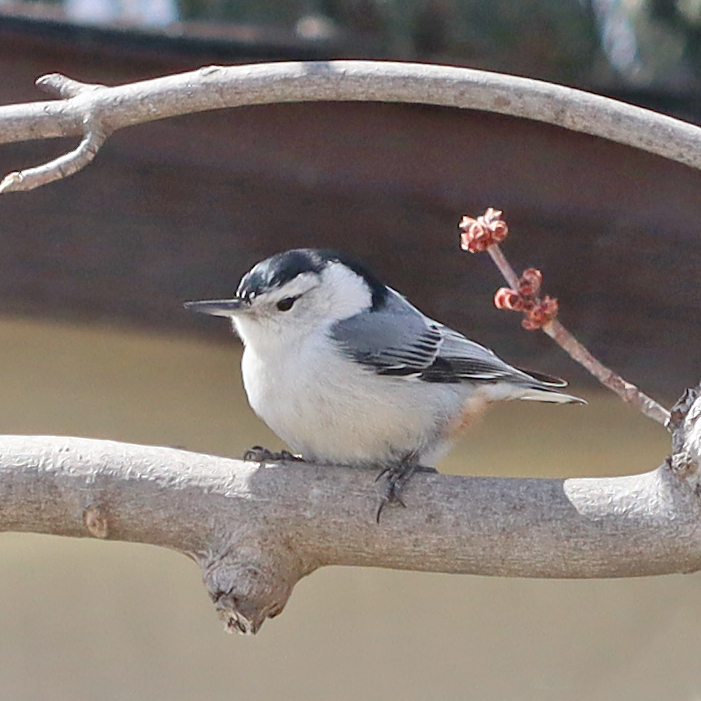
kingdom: Animalia
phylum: Chordata
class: Aves
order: Passeriformes
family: Sittidae
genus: Sitta
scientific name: Sitta carolinensis
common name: White-breasted nuthatch
